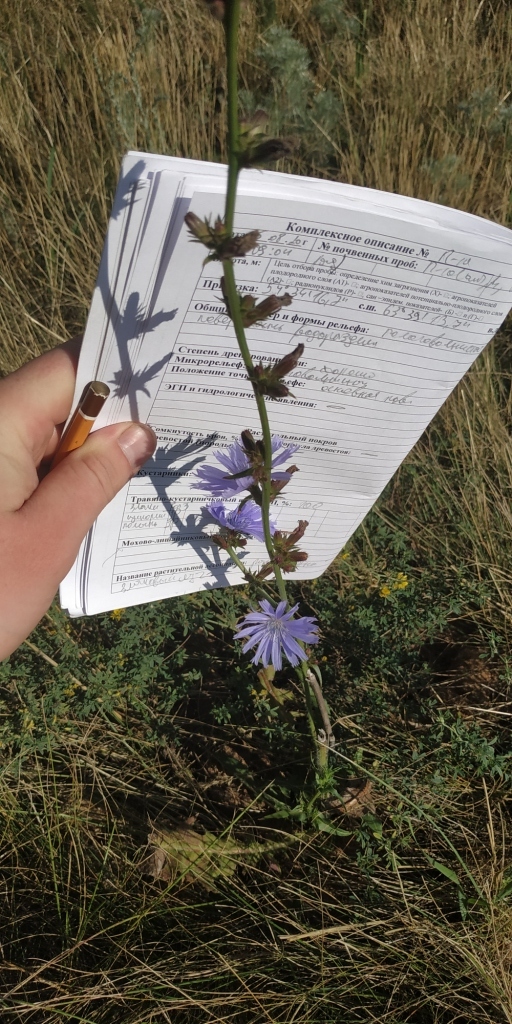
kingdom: Plantae
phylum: Tracheophyta
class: Magnoliopsida
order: Asterales
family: Asteraceae
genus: Cichorium
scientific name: Cichorium intybus
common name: Chicory
